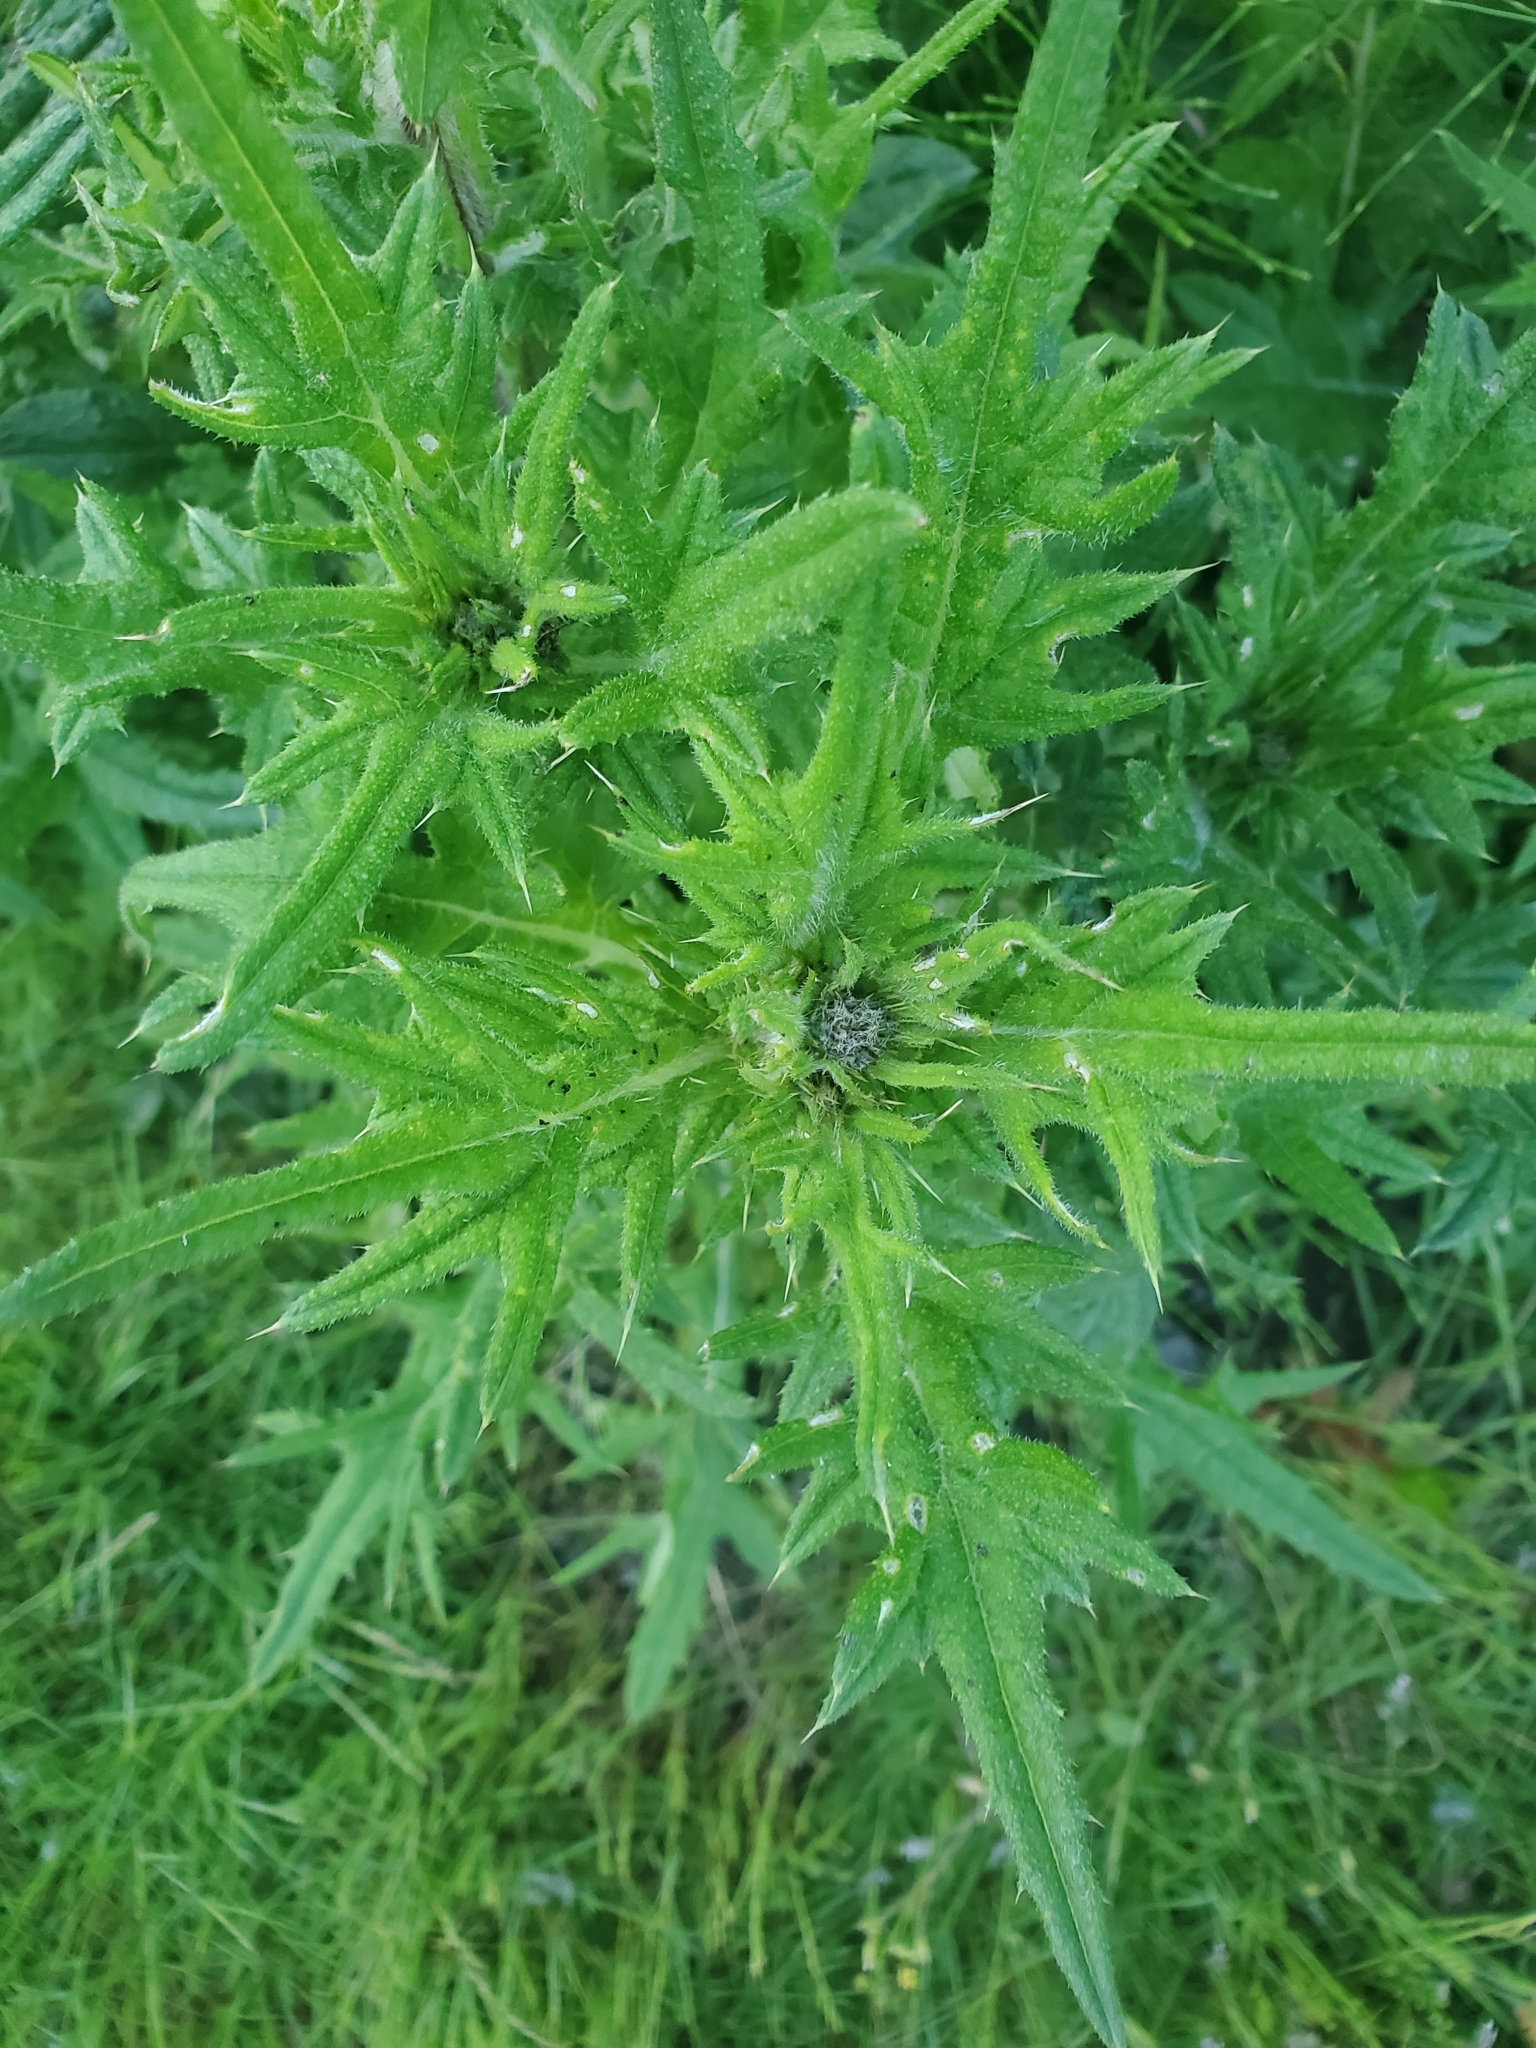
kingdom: Plantae
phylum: Tracheophyta
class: Magnoliopsida
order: Asterales
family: Asteraceae
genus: Cirsium
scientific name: Cirsium vulgare
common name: Bull thistle
